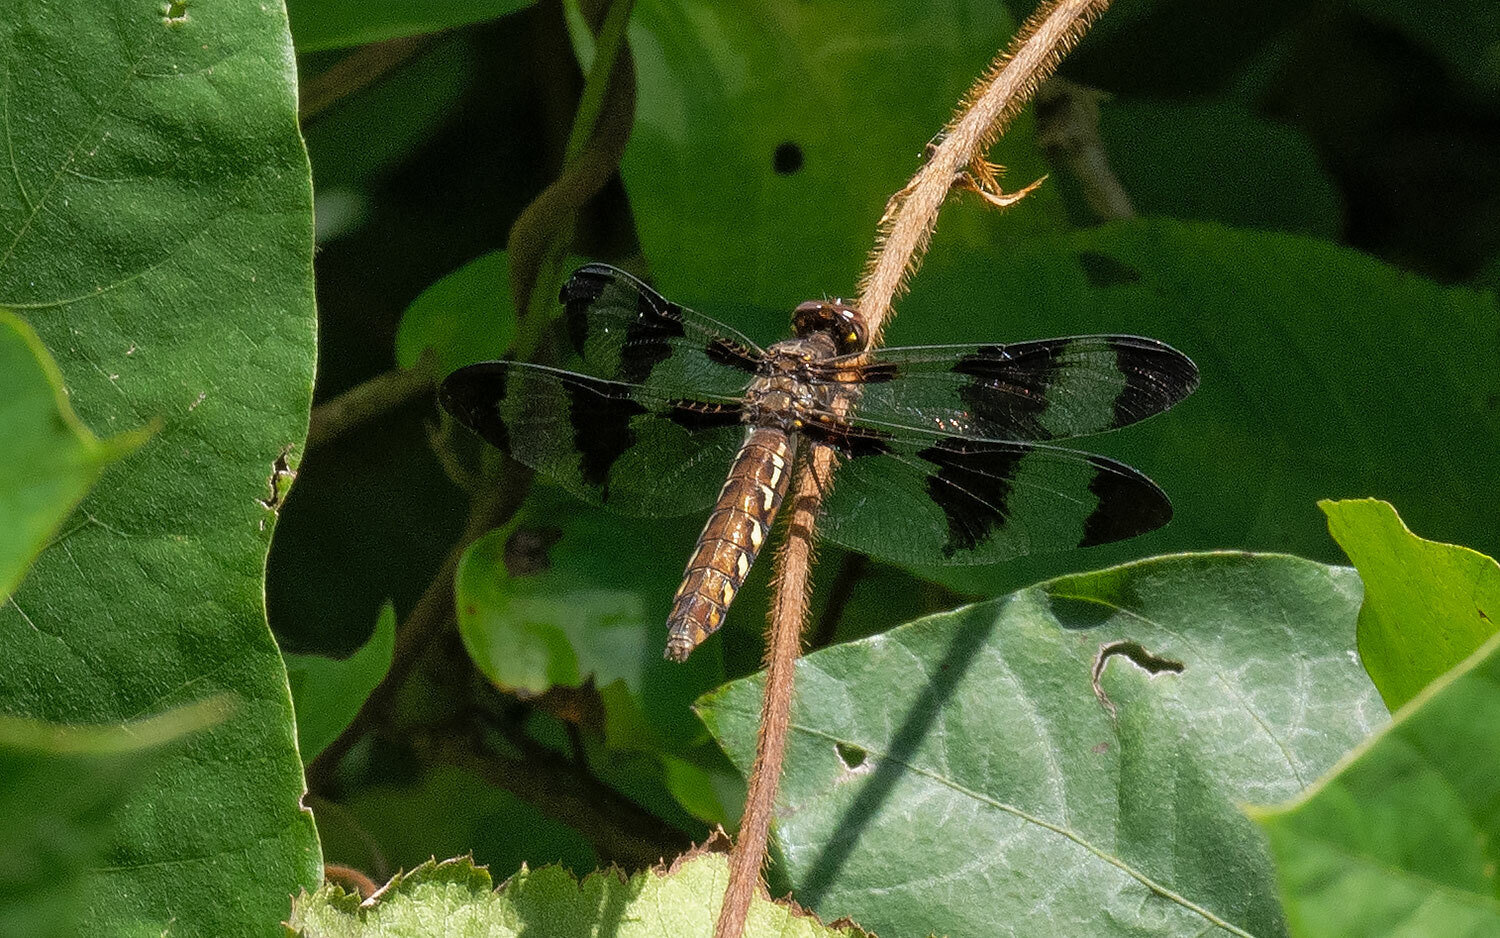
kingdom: Animalia
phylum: Arthropoda
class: Insecta
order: Odonata
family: Libellulidae
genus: Plathemis
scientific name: Plathemis lydia
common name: Common whitetail
